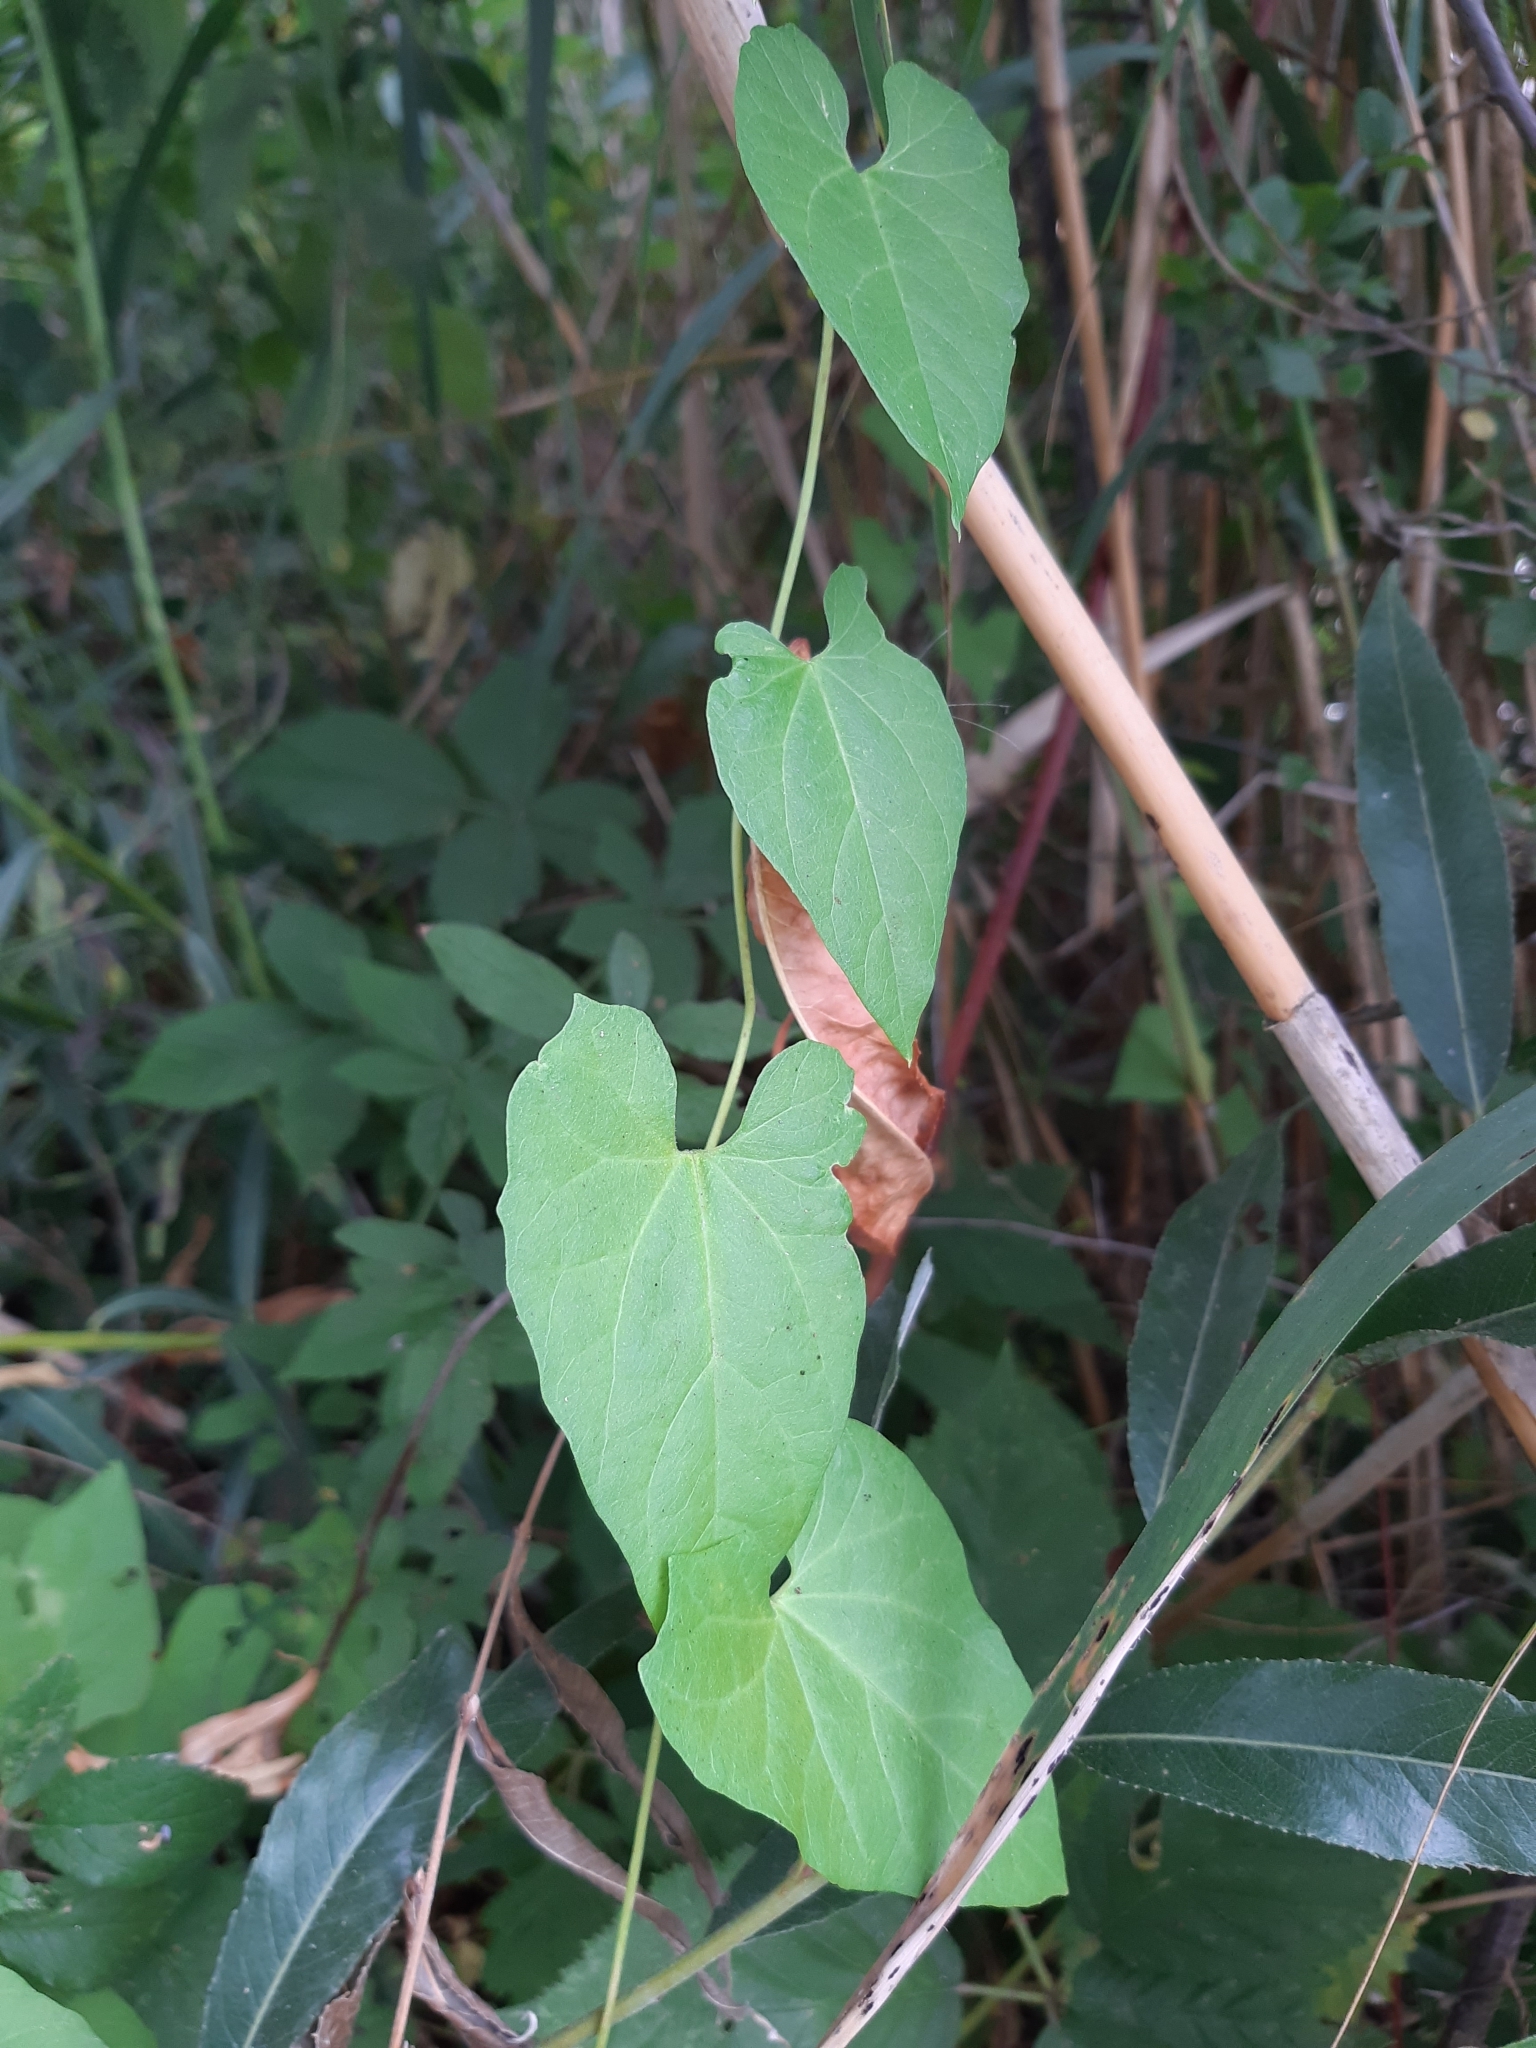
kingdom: Plantae
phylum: Tracheophyta
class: Magnoliopsida
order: Solanales
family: Convolvulaceae
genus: Calystegia
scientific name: Calystegia sepium
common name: Hedge bindweed
